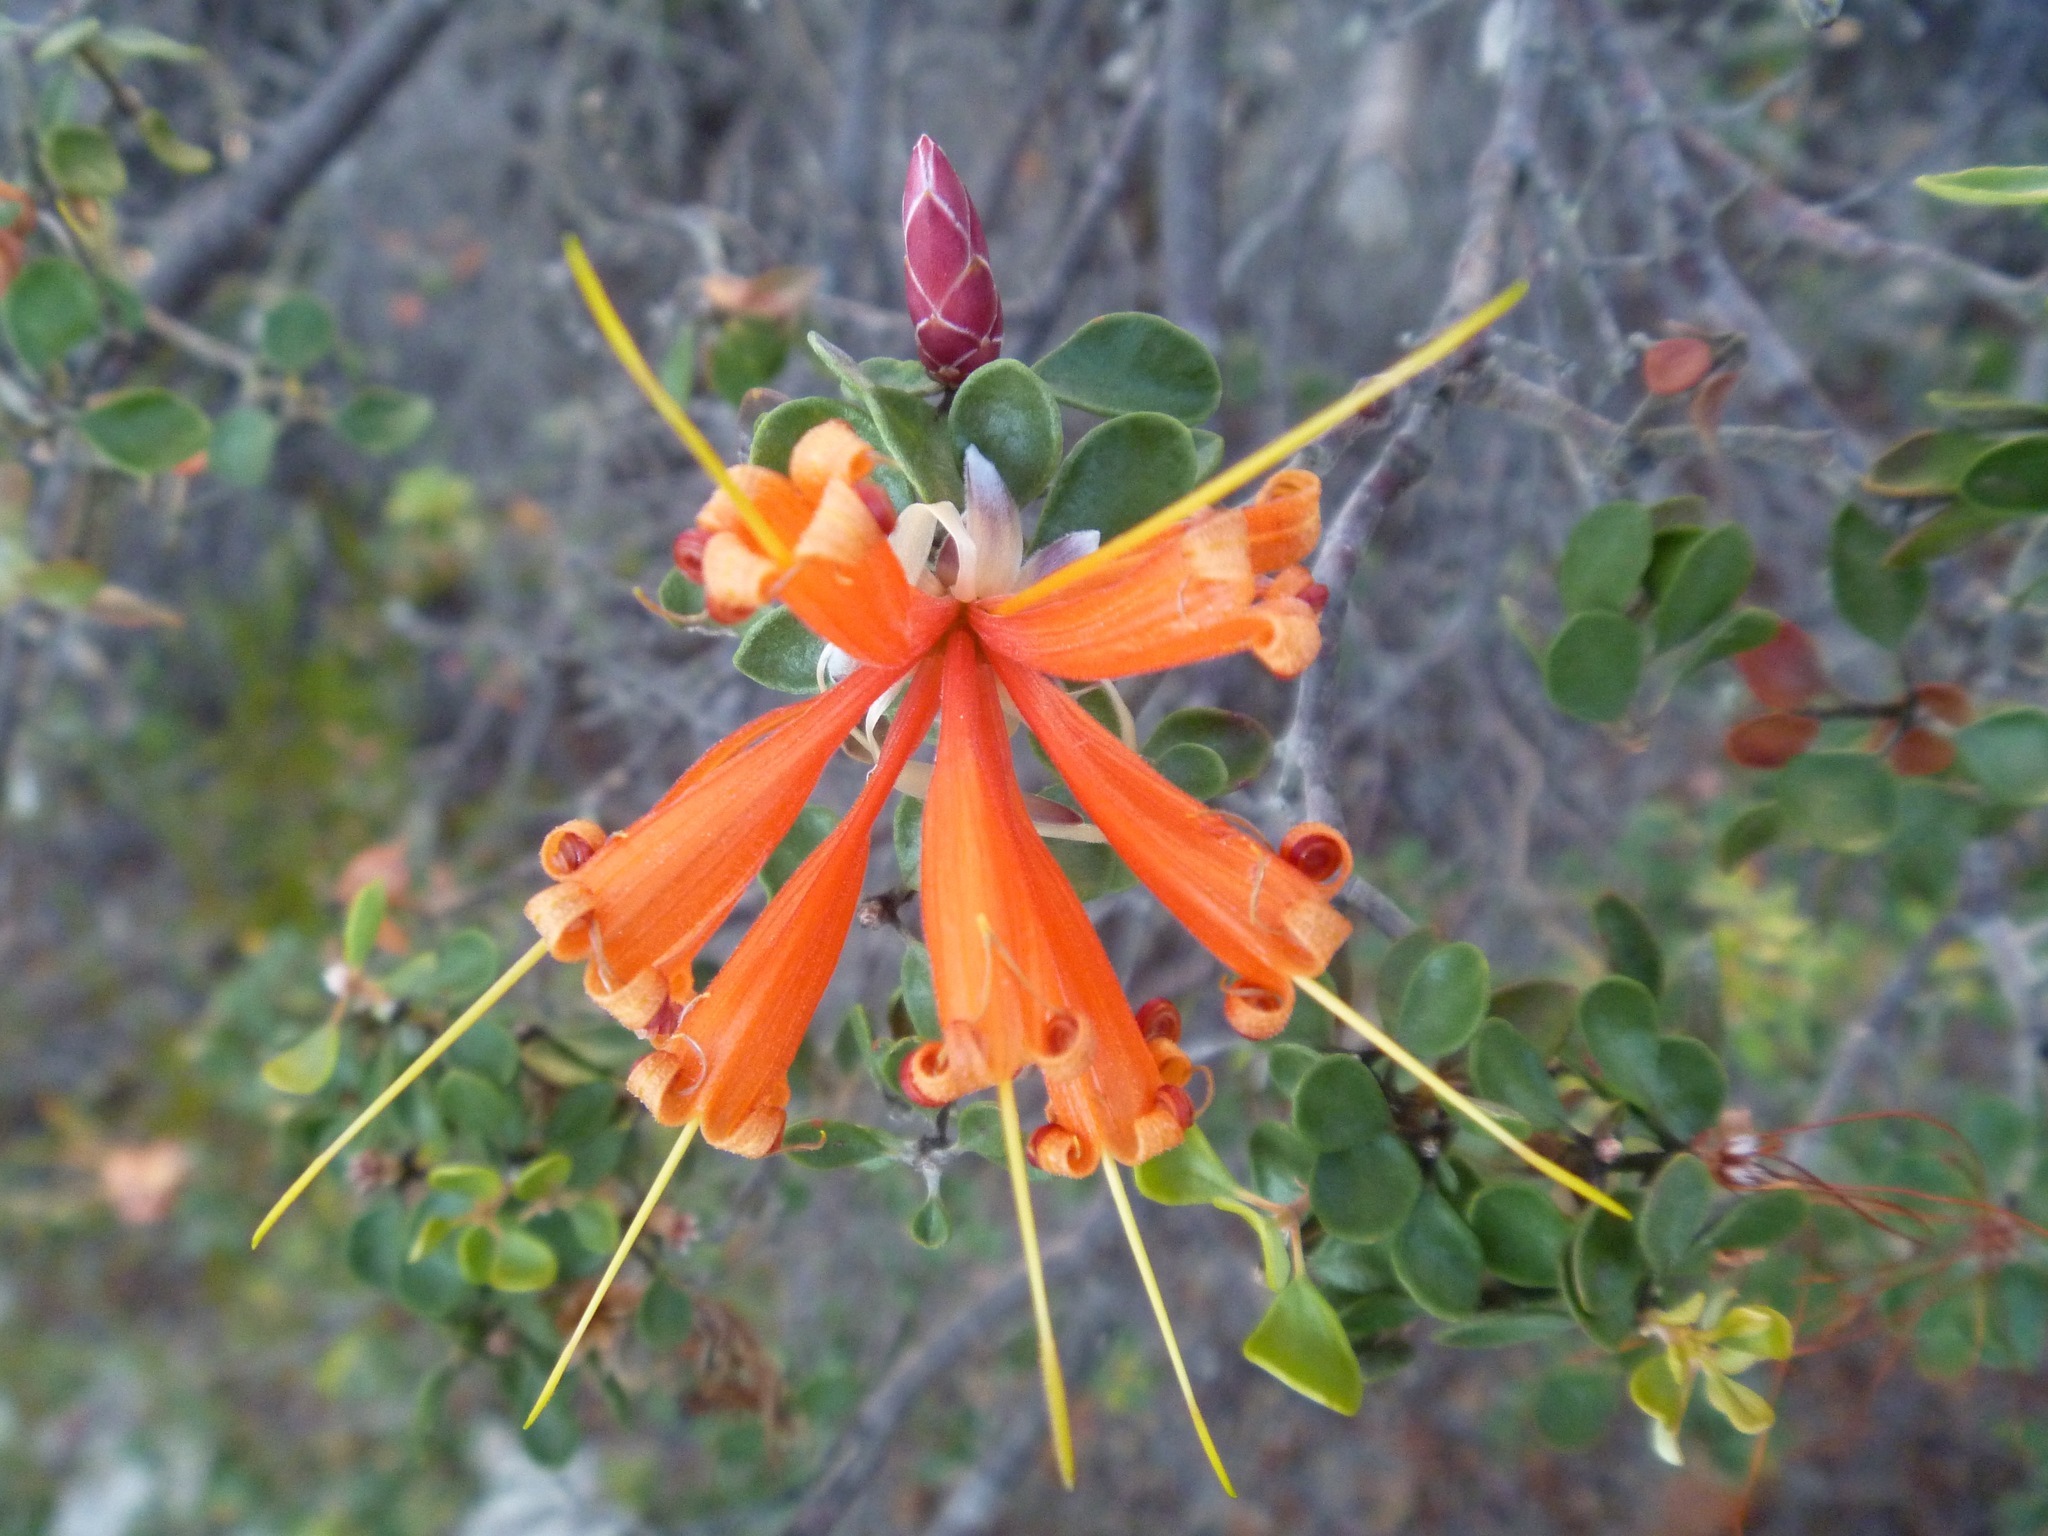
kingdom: Plantae
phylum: Tracheophyta
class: Magnoliopsida
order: Proteales
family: Proteaceae
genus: Lambertia
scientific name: Lambertia inermis
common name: Chittick
